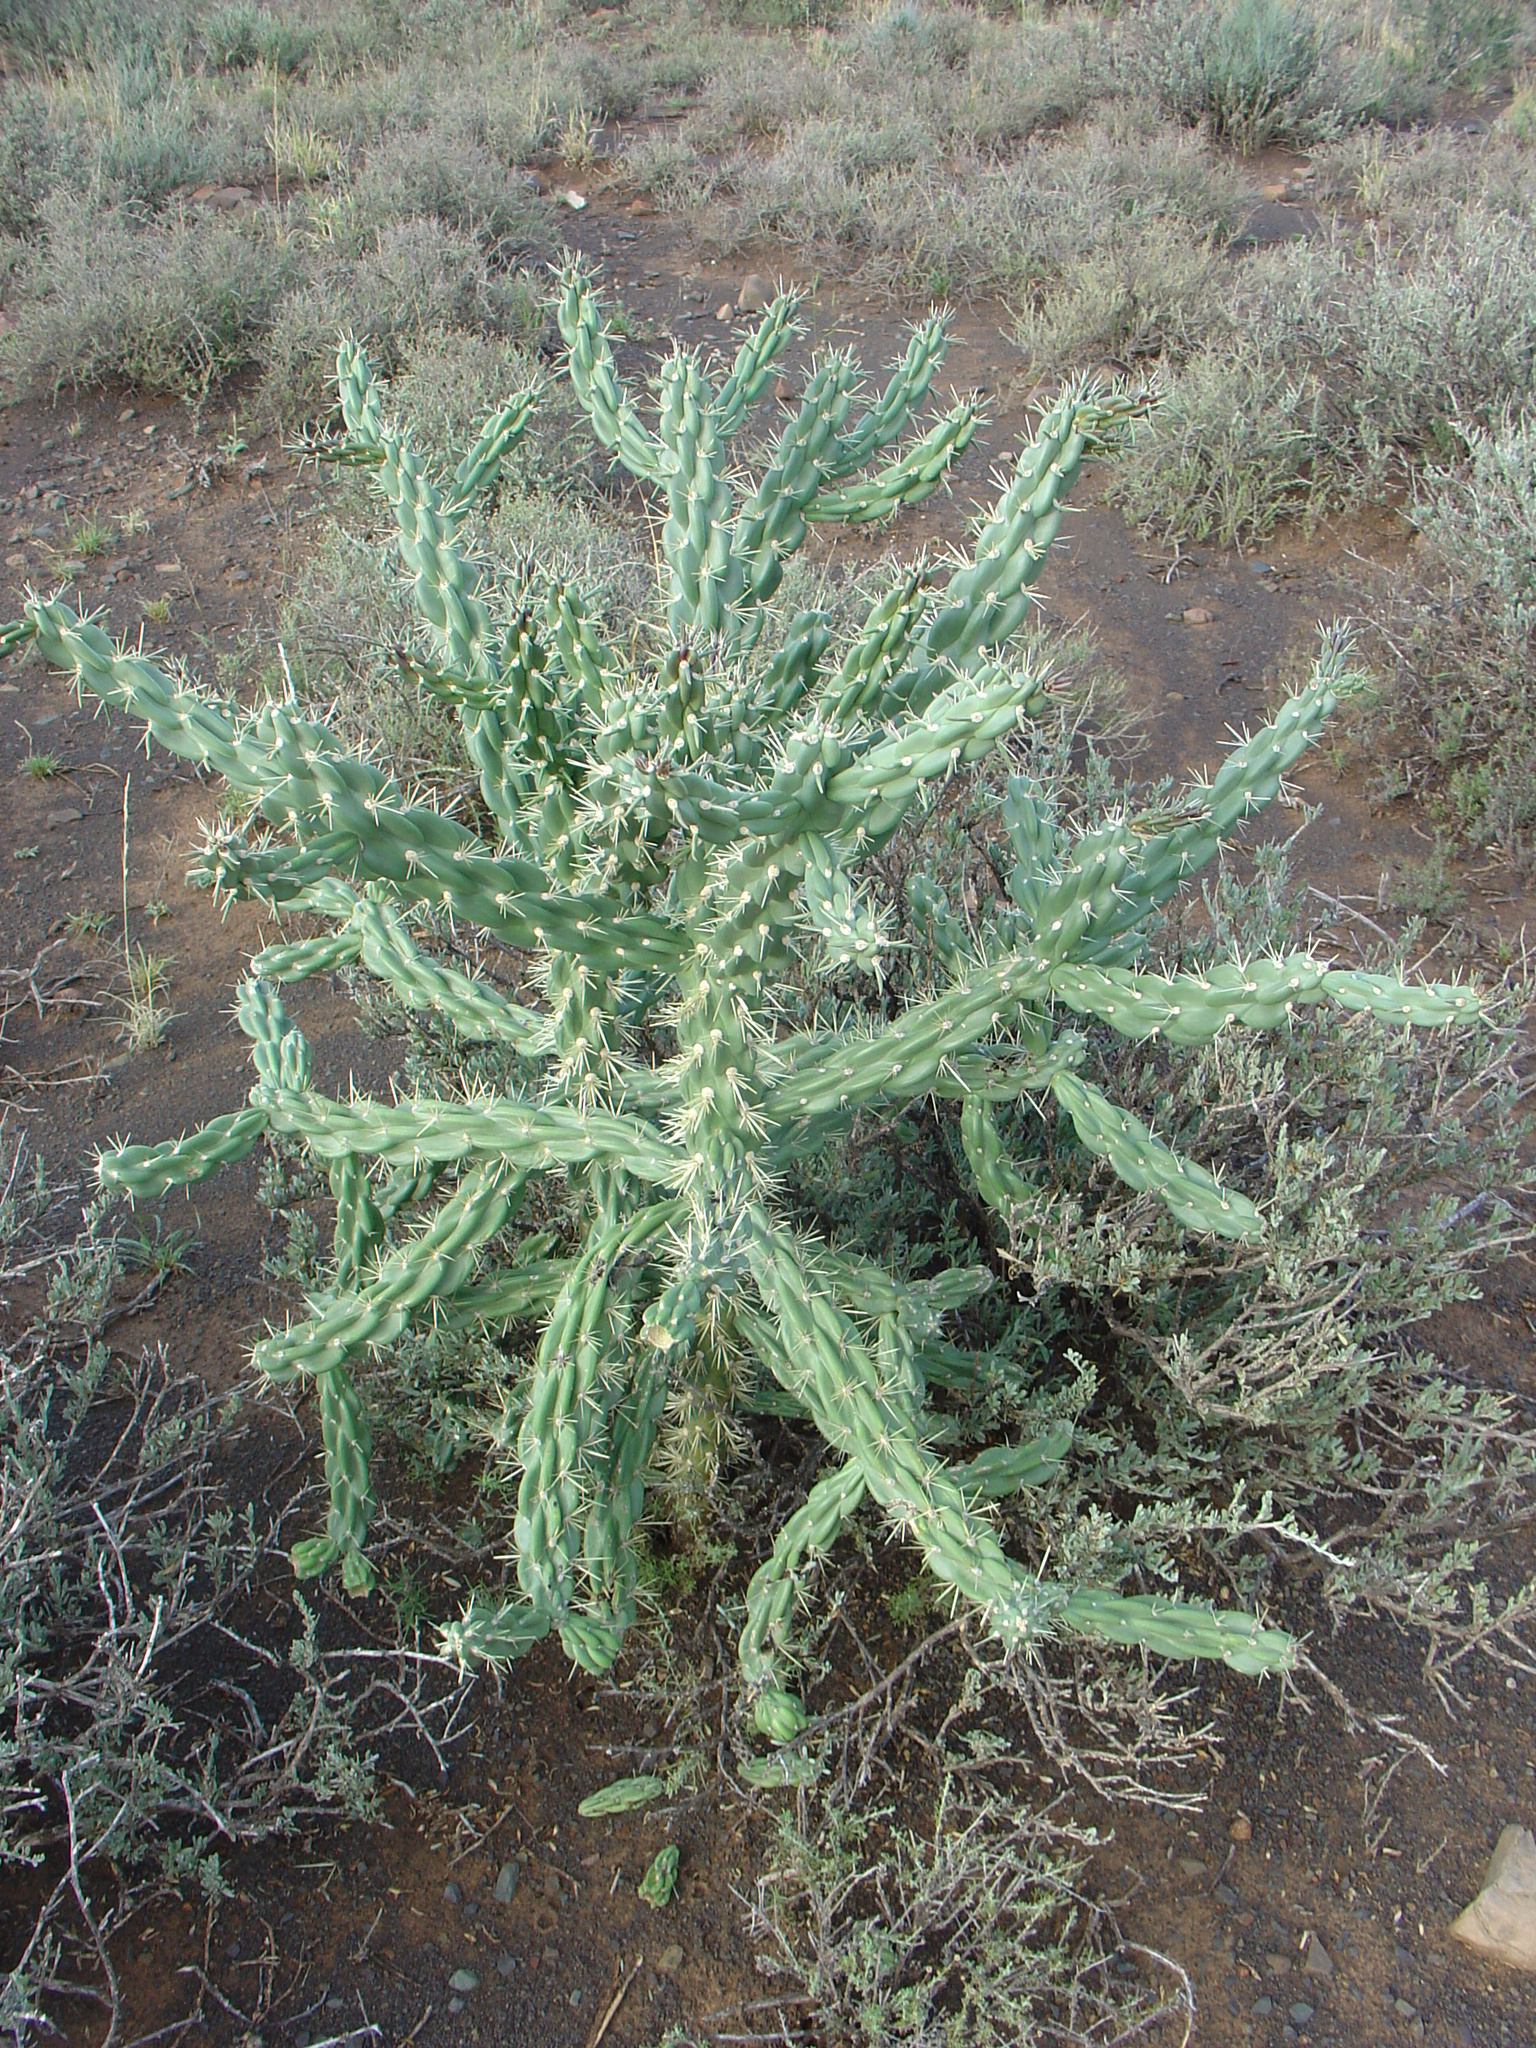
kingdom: Plantae
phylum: Tracheophyta
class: Magnoliopsida
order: Caryophyllales
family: Cactaceae
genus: Cylindropuntia
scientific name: Cylindropuntia imbricata
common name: Candelabrum cactus
